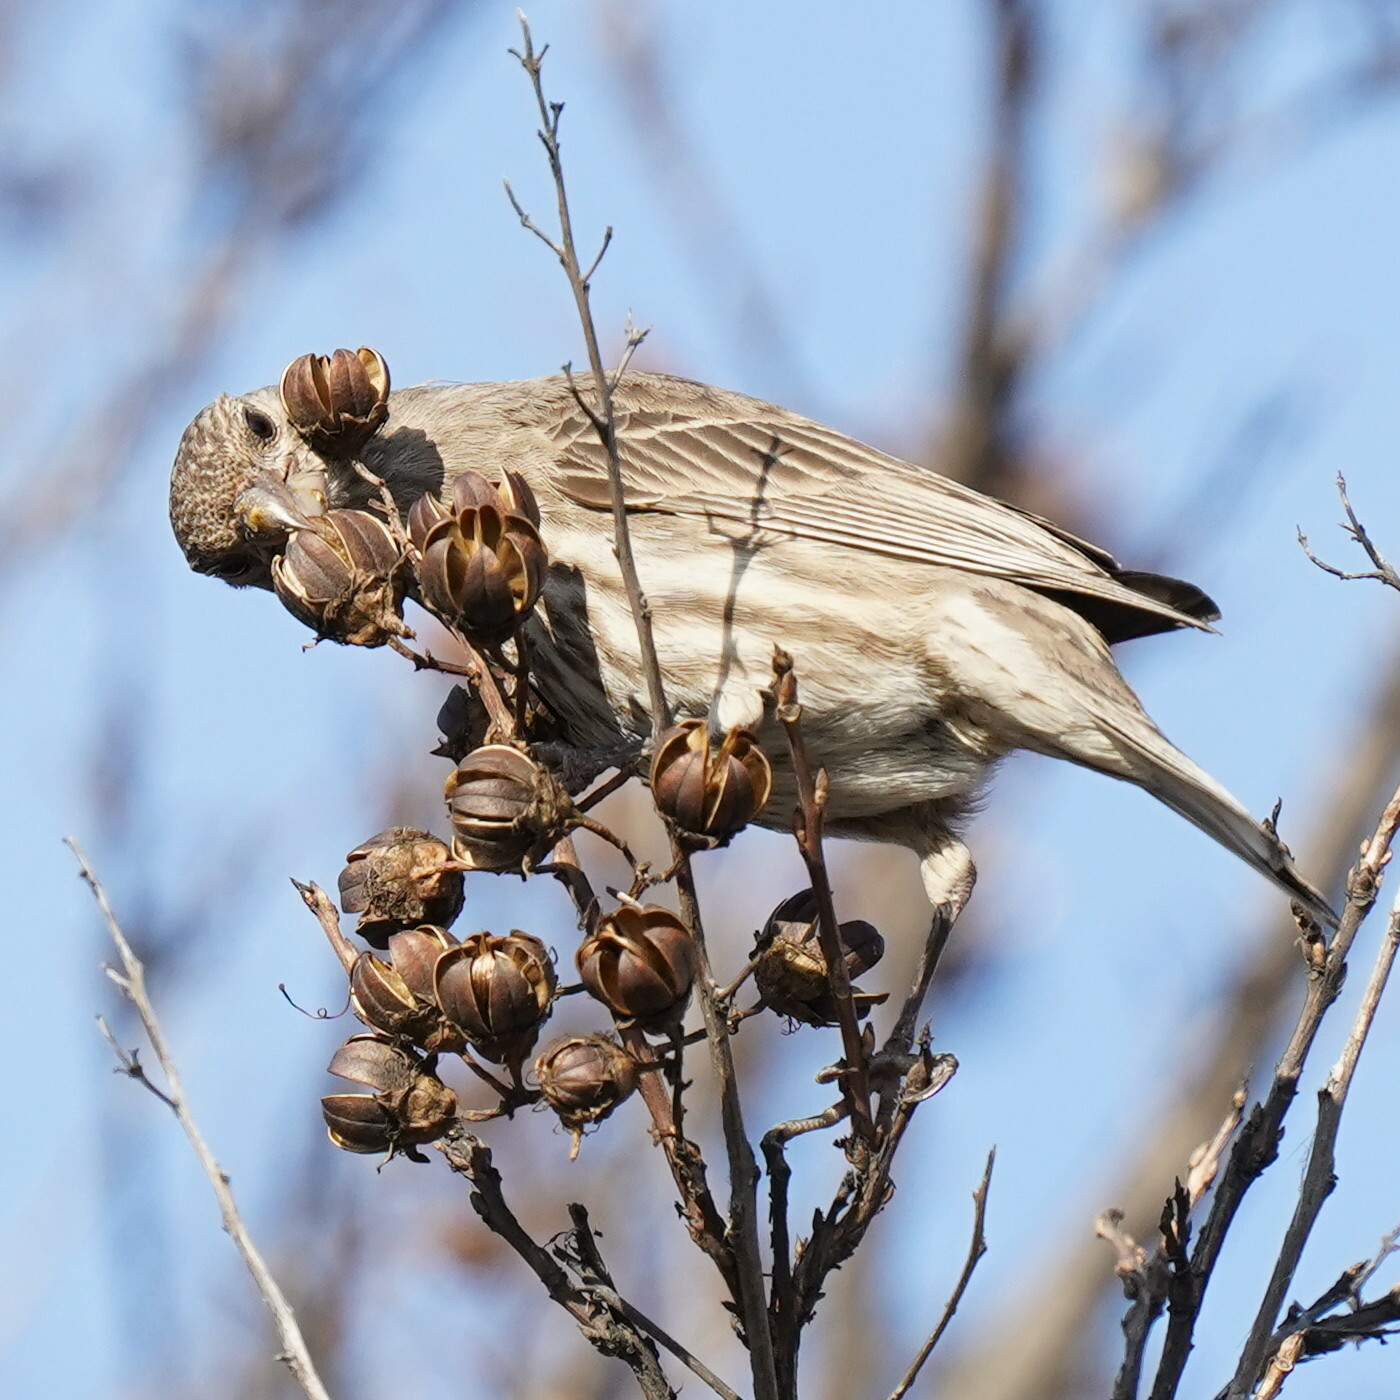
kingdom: Animalia
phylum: Chordata
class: Aves
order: Passeriformes
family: Fringillidae
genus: Haemorhous
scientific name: Haemorhous mexicanus
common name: House finch
